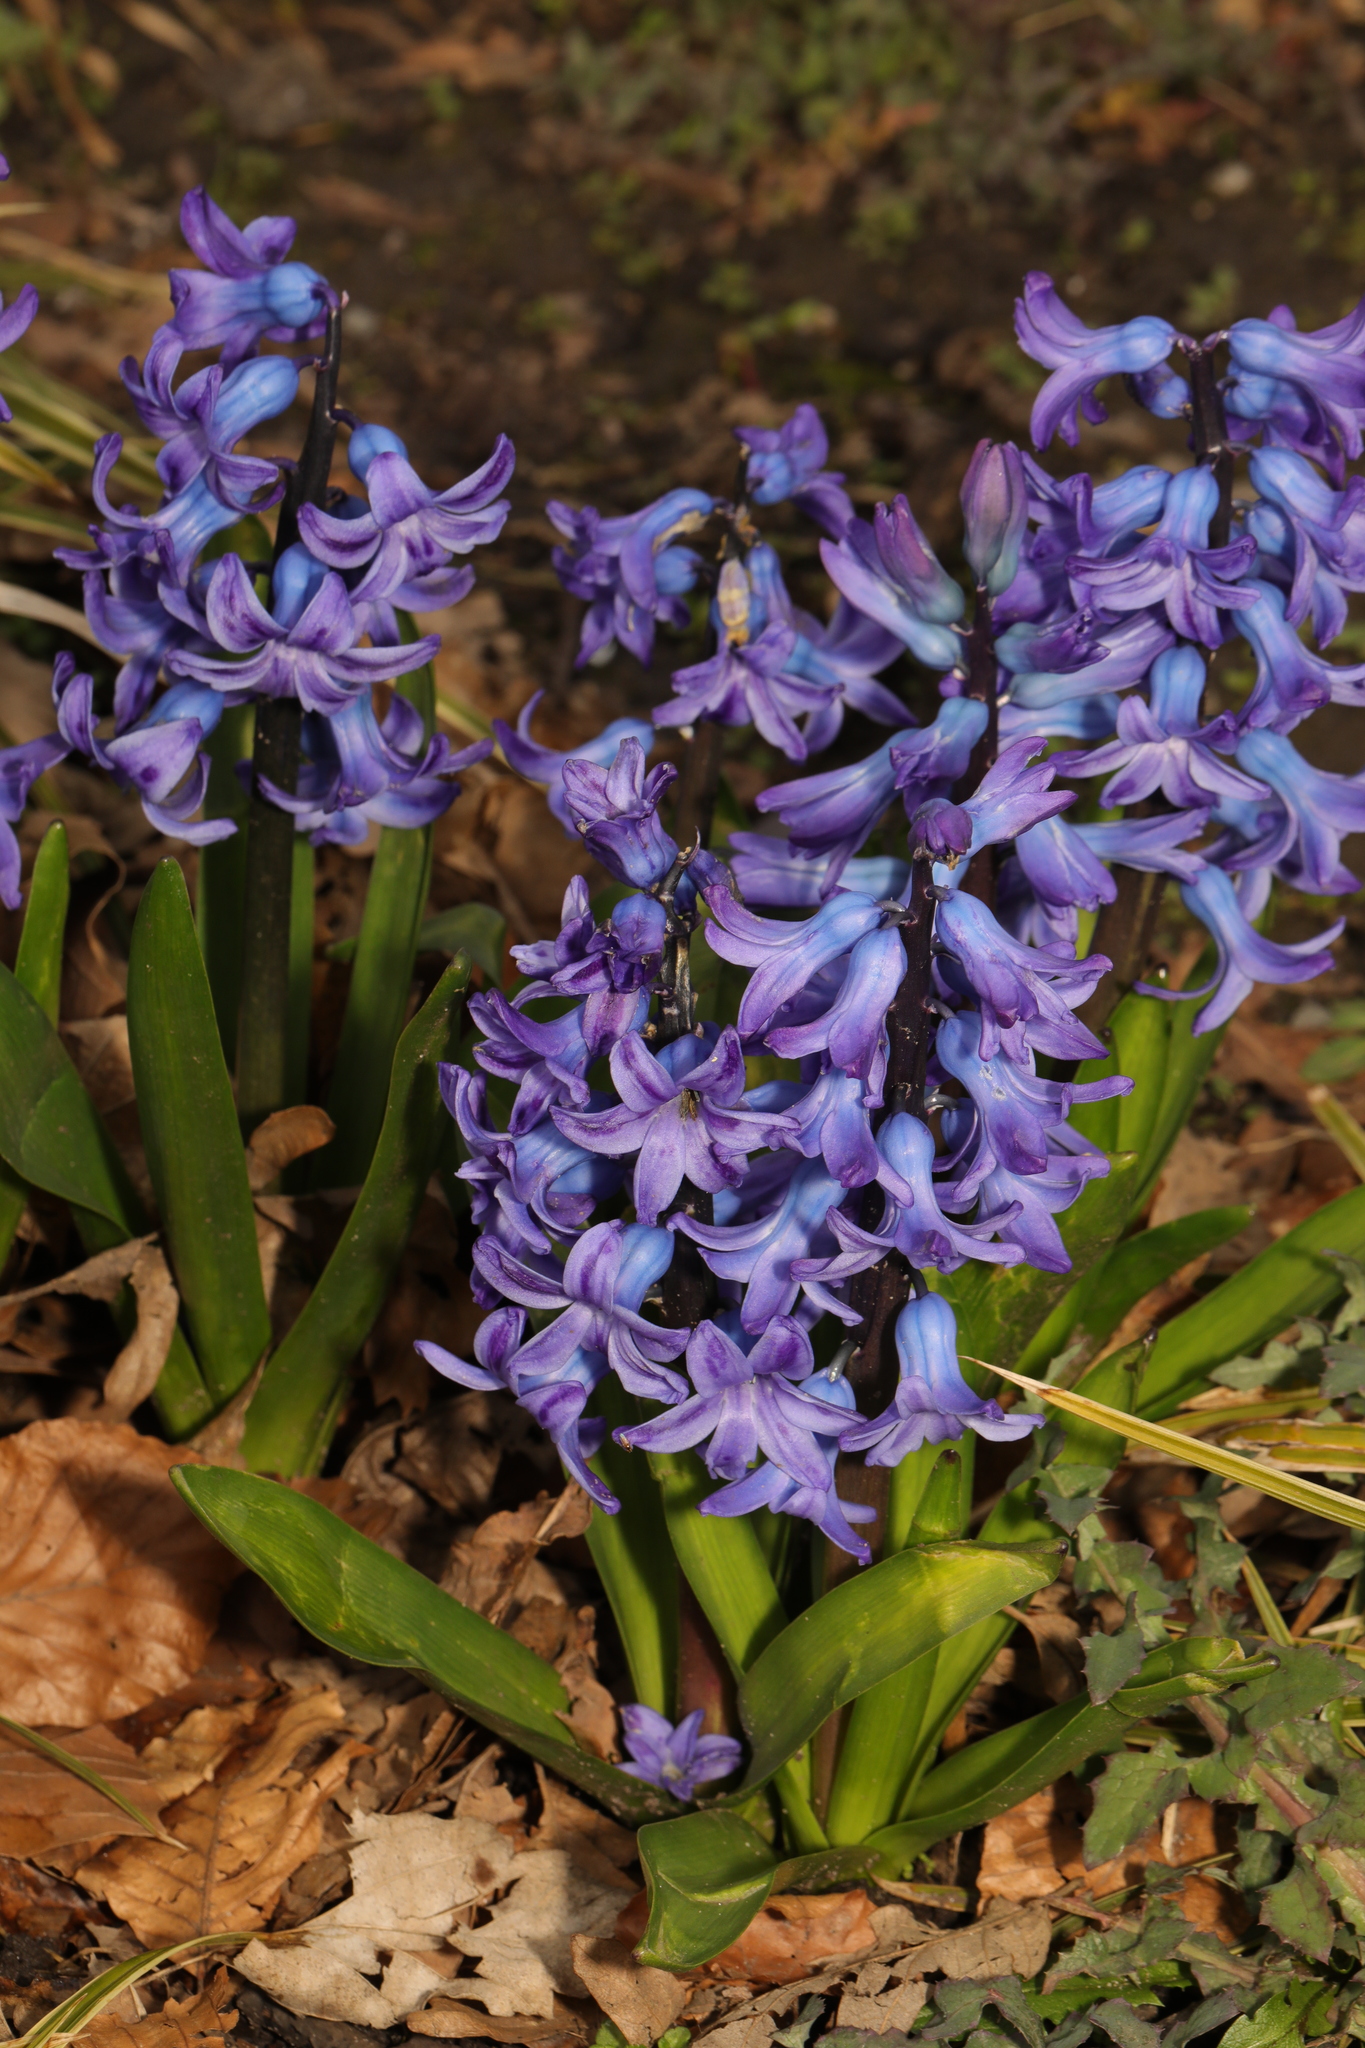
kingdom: Plantae
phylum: Tracheophyta
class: Liliopsida
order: Asparagales
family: Asparagaceae
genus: Hyacinthus
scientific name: Hyacinthus orientalis
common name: Hyacinth
